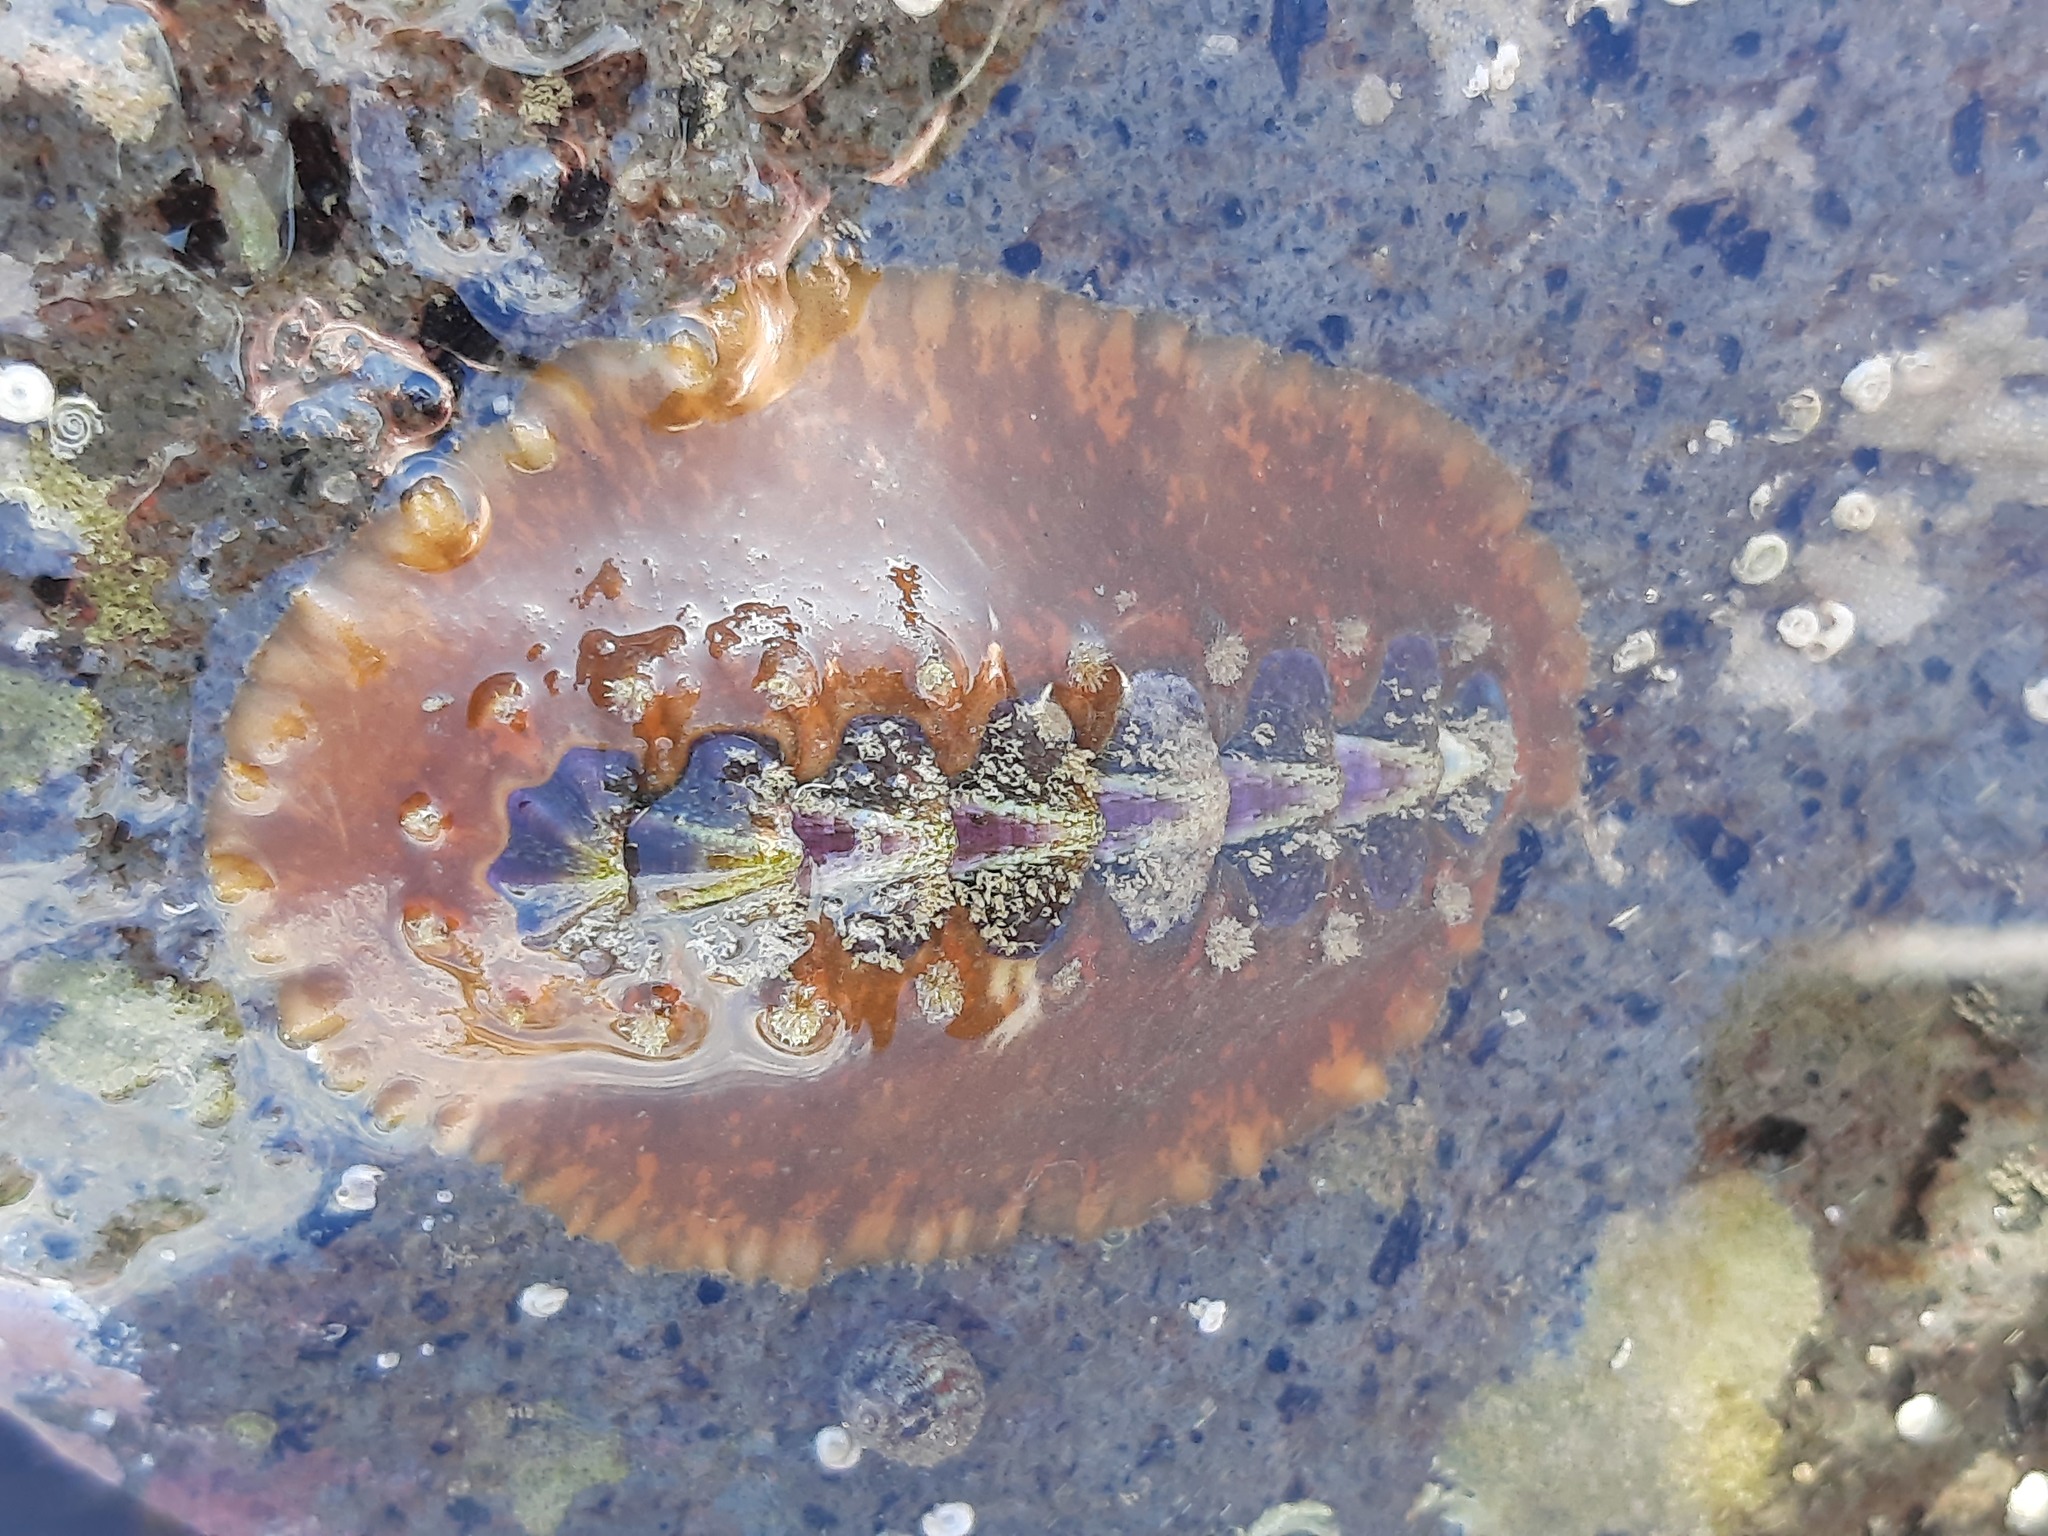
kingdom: Animalia
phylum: Mollusca
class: Polyplacophora
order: Chitonida
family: Acanthochitonidae
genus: Notoplax
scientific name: Notoplax violacea
